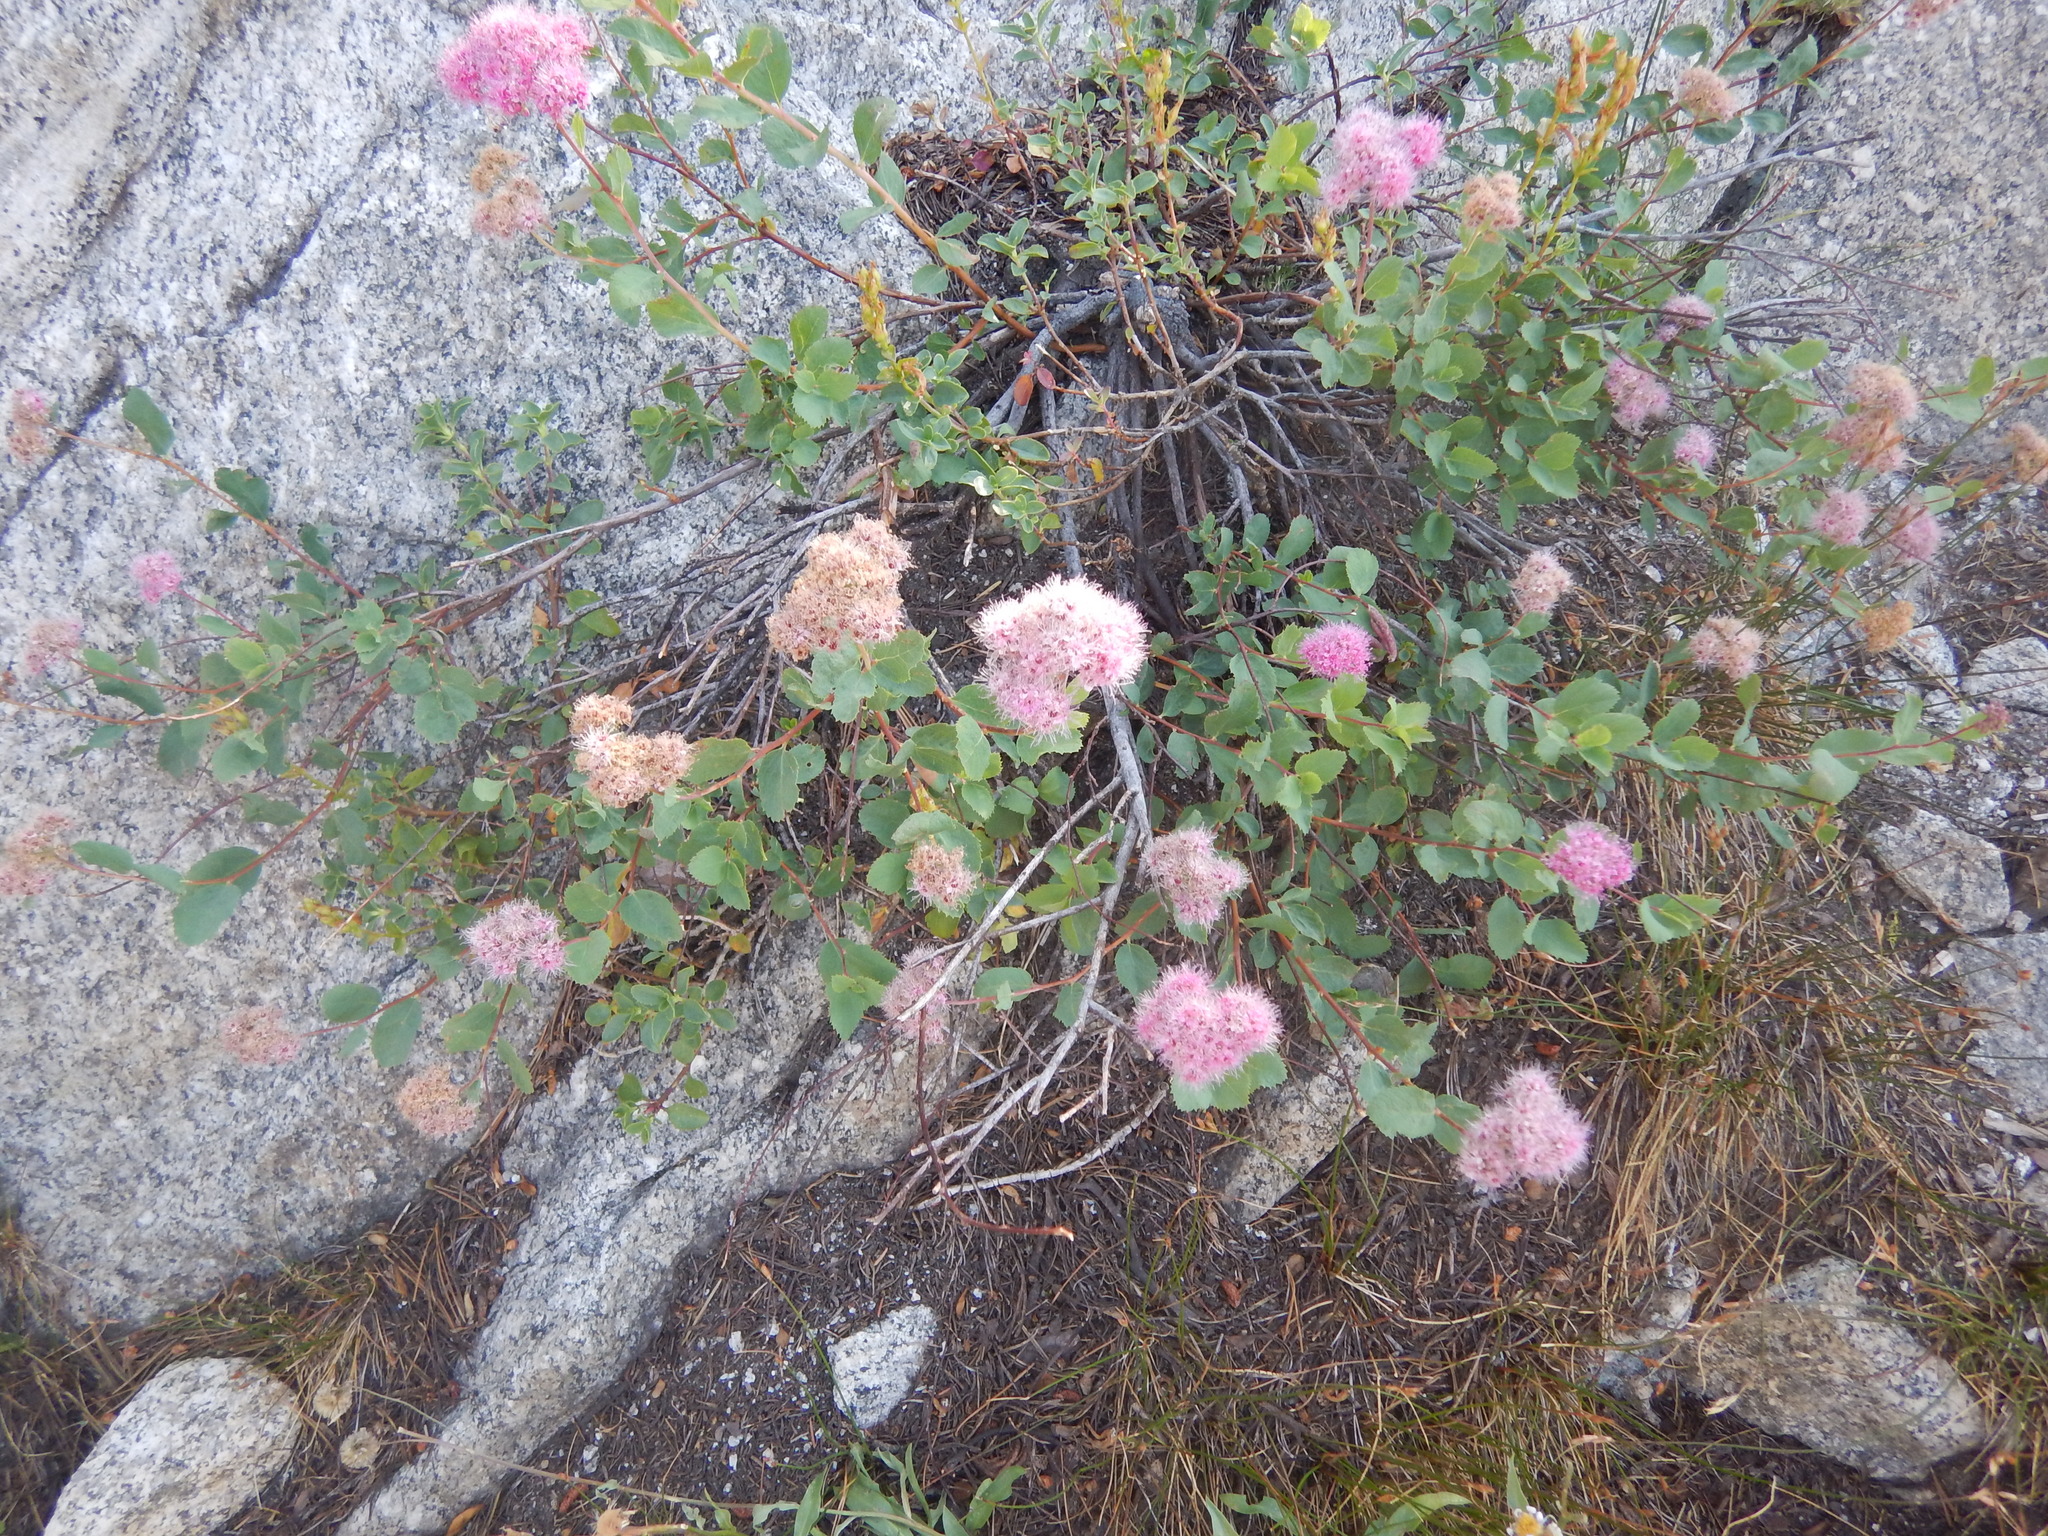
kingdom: Plantae
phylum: Tracheophyta
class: Magnoliopsida
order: Rosales
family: Rosaceae
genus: Spiraea
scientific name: Spiraea splendens
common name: Subalpine meadowsweet
